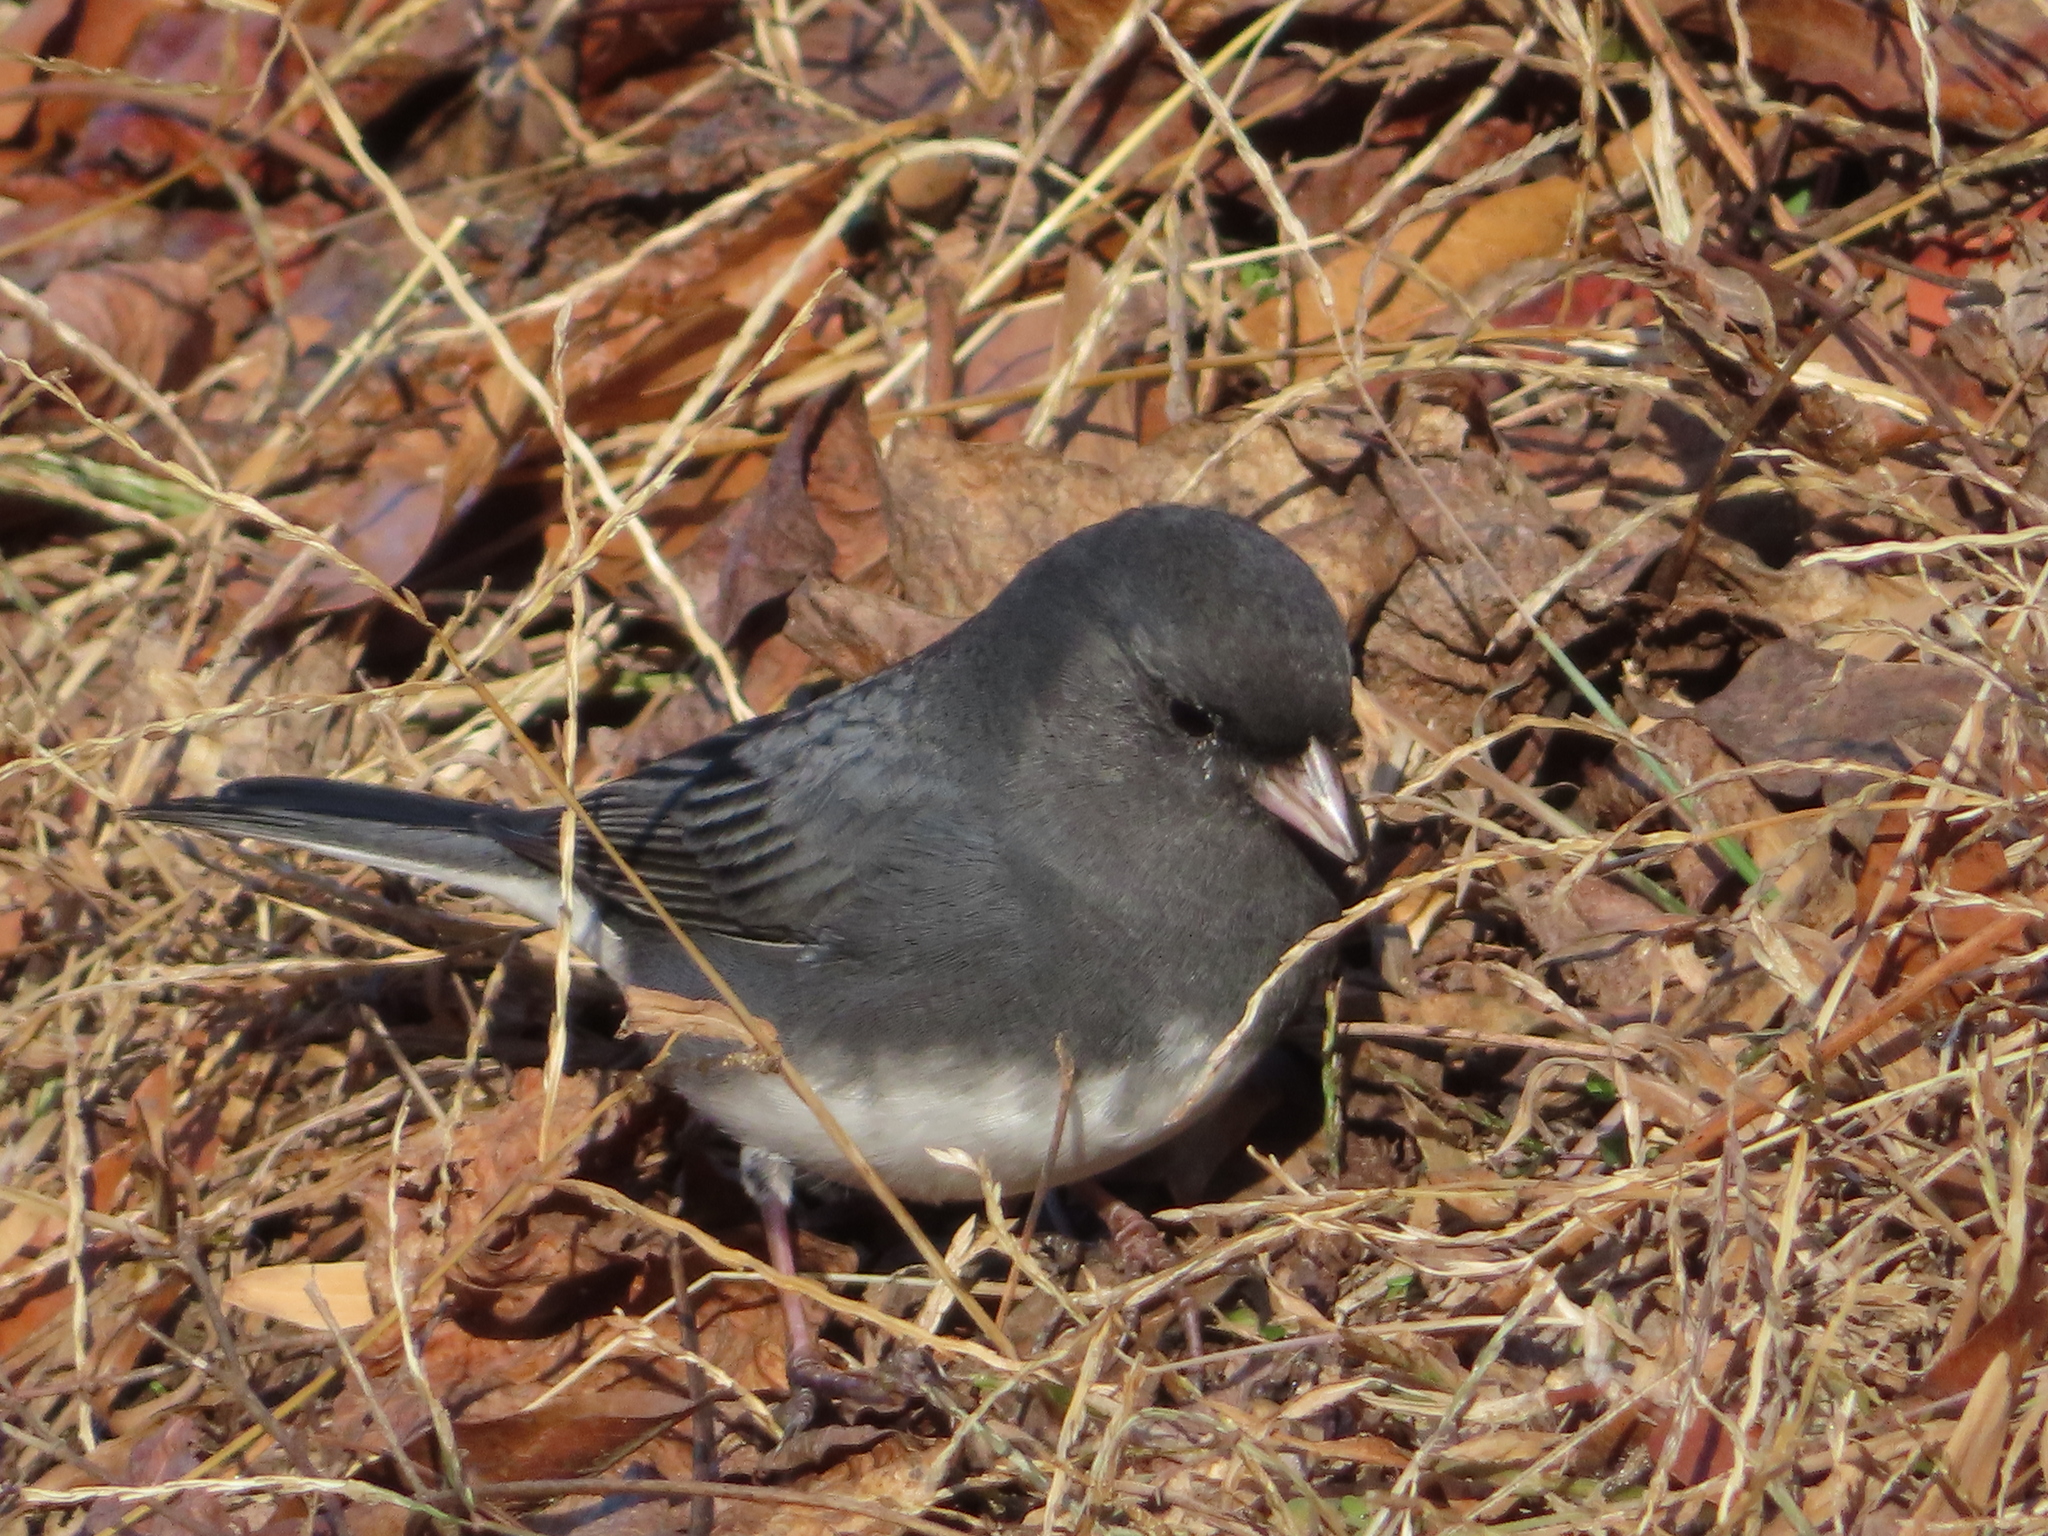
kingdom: Animalia
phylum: Chordata
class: Aves
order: Passeriformes
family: Passerellidae
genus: Junco
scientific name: Junco hyemalis
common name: Dark-eyed junco
